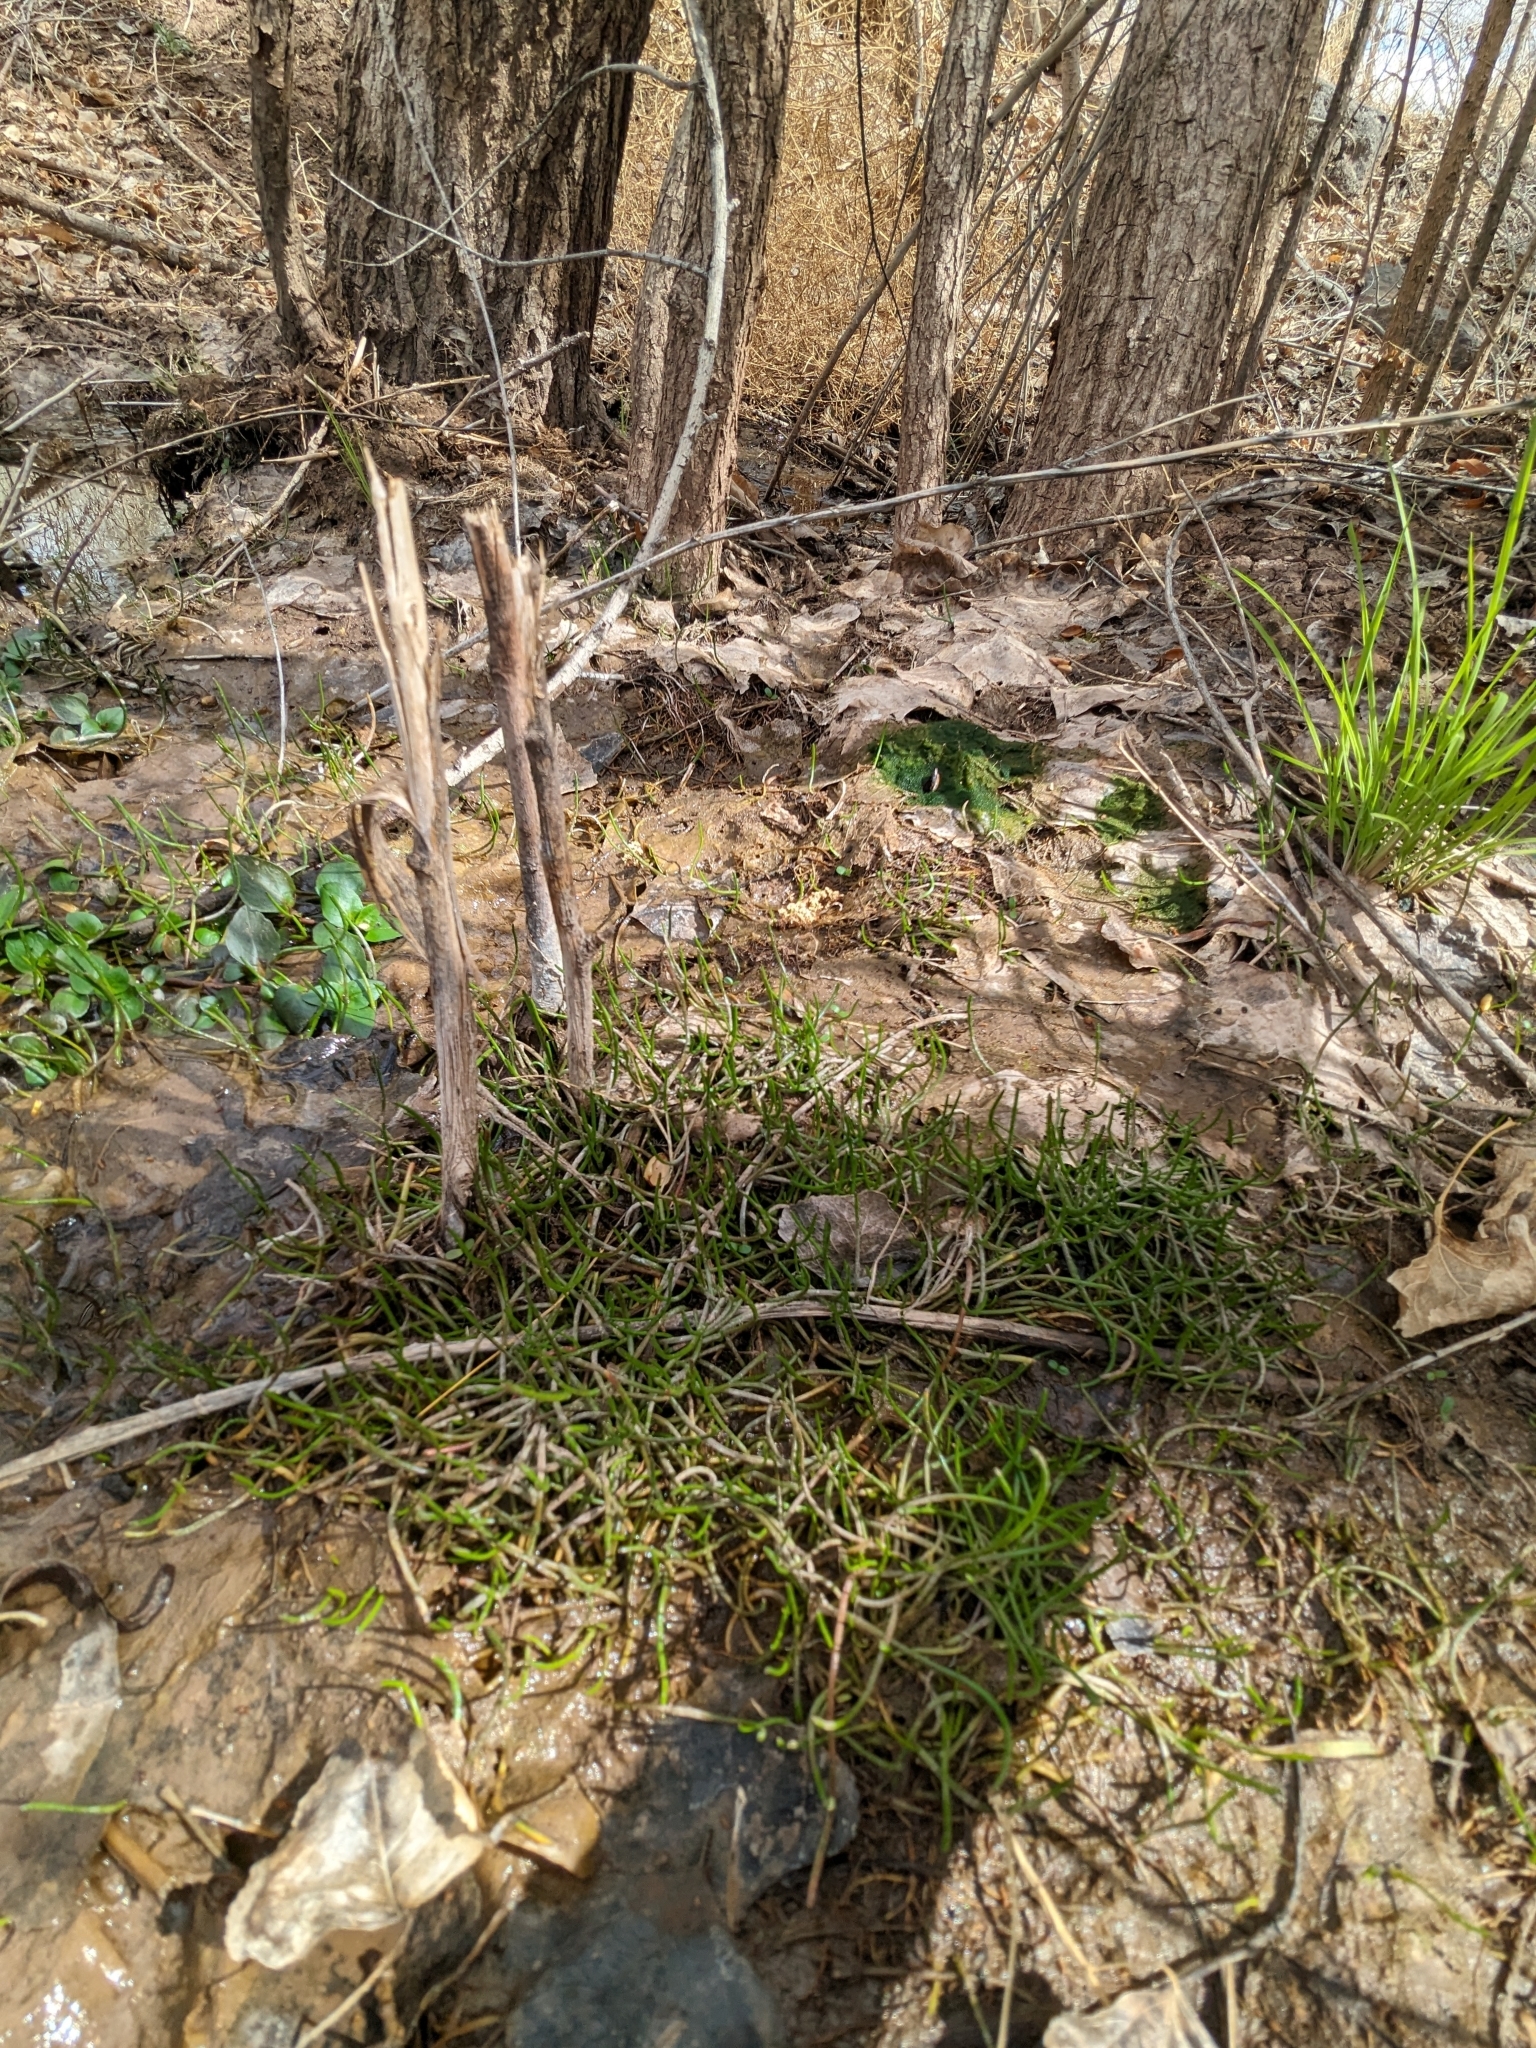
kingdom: Plantae
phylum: Tracheophyta
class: Magnoliopsida
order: Apiales
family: Apiaceae
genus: Lilaeopsis
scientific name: Lilaeopsis schaffneriana
